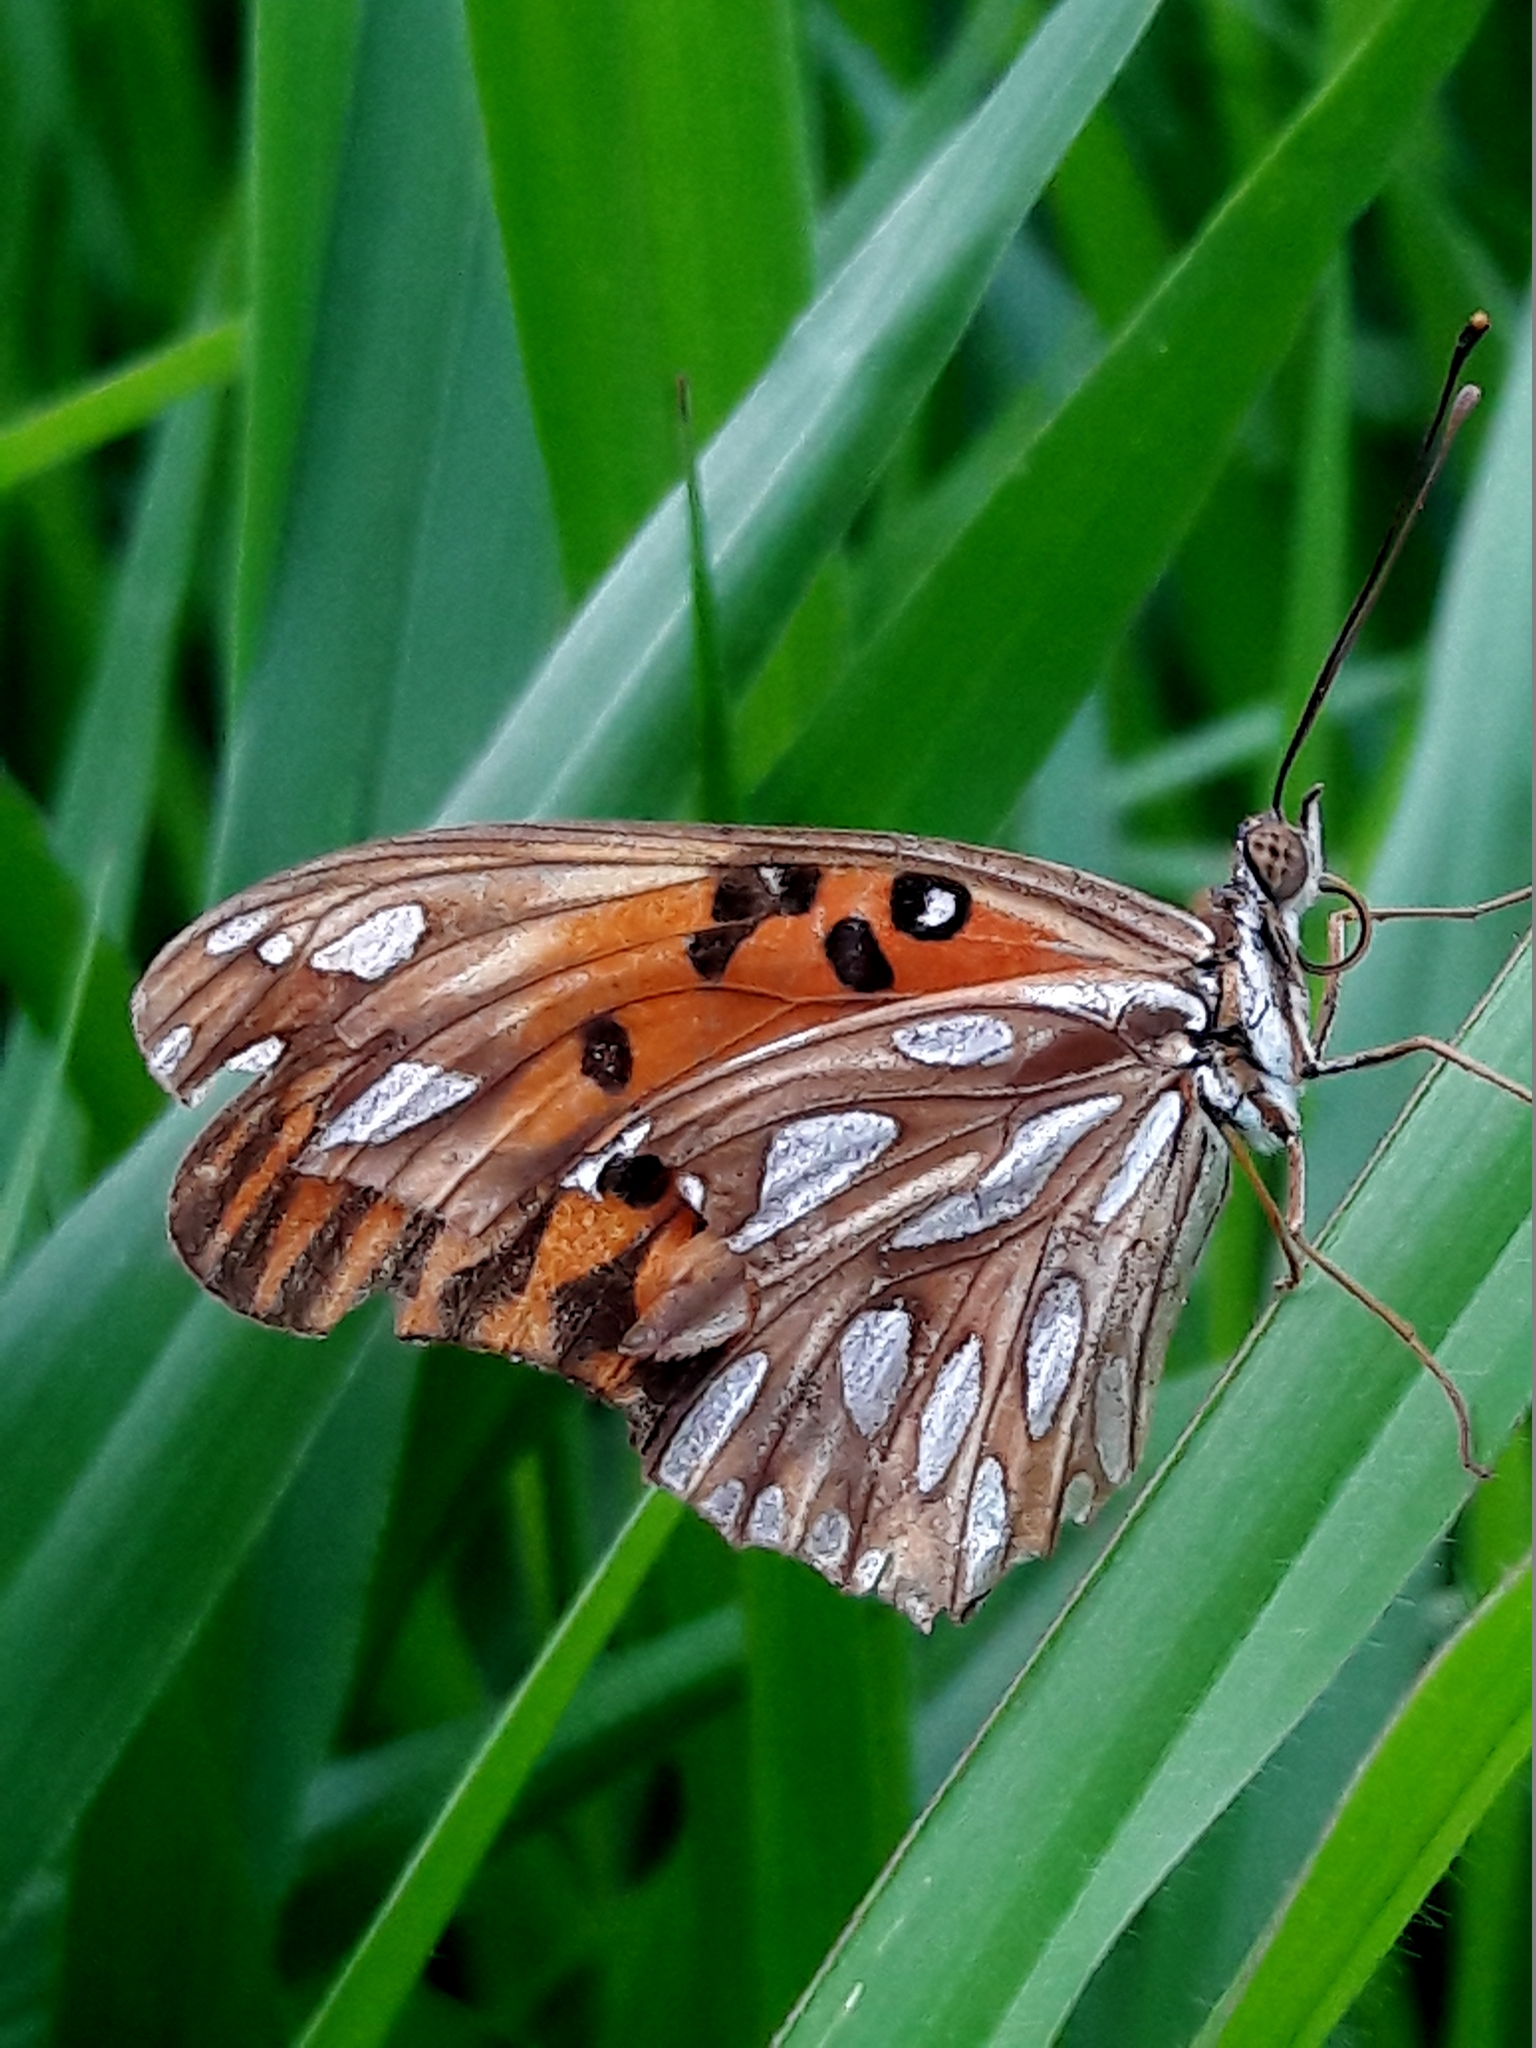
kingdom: Animalia
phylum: Arthropoda
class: Insecta
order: Lepidoptera
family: Nymphalidae
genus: Dione
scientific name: Dione vanillae
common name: Gulf fritillary
